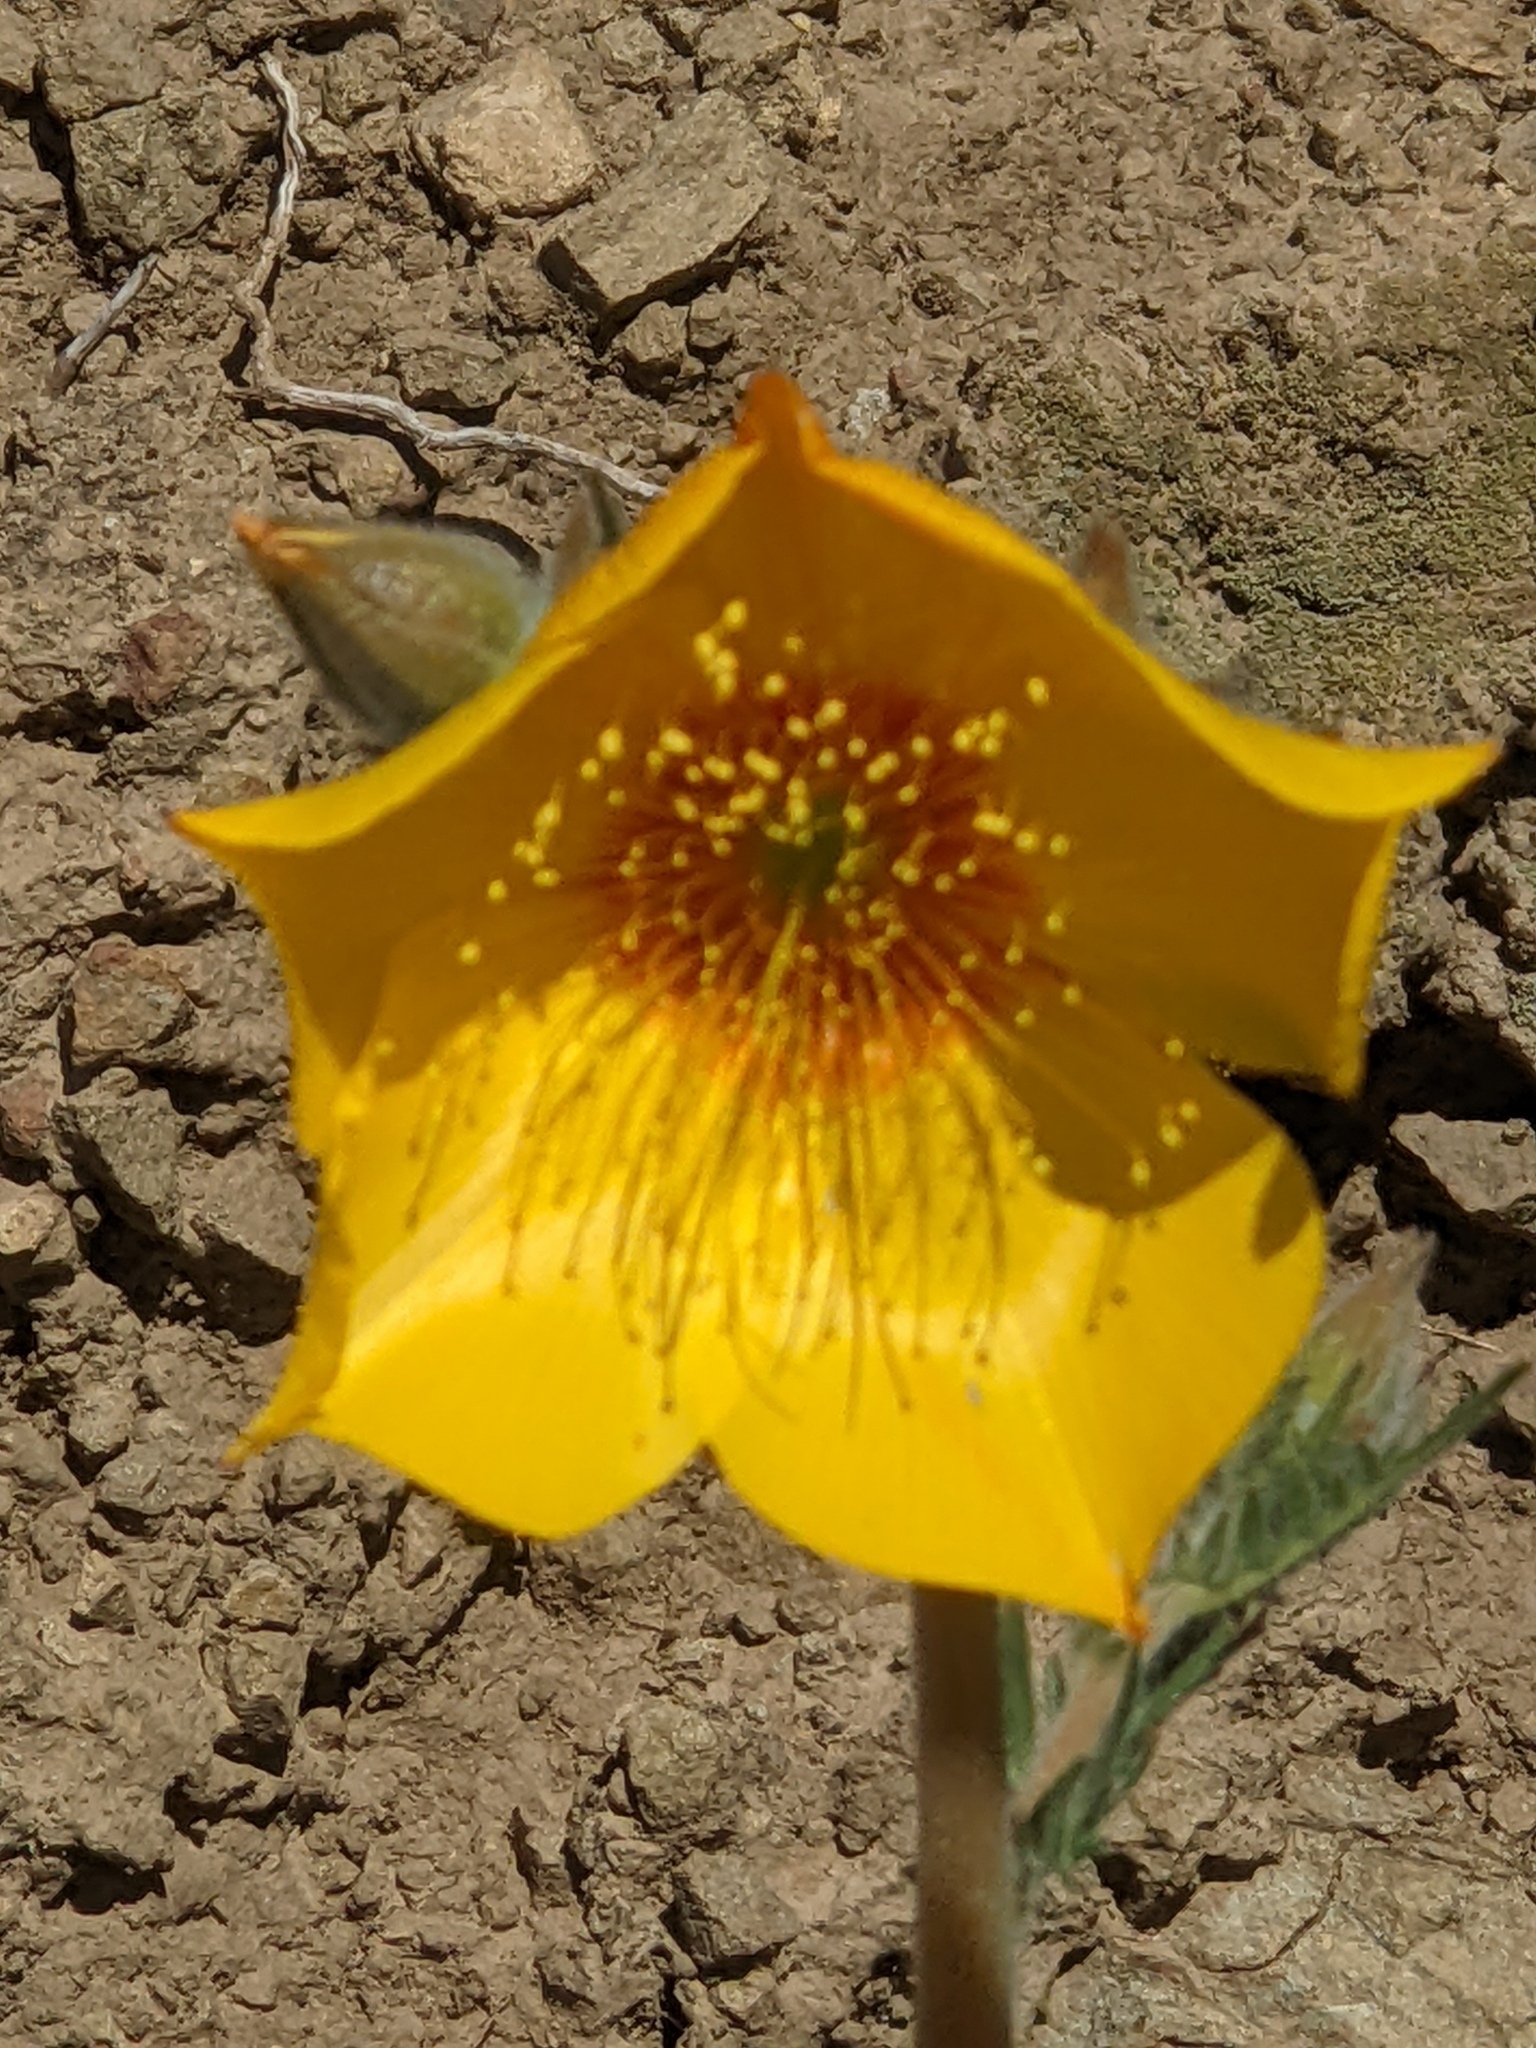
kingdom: Plantae
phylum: Tracheophyta
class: Magnoliopsida
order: Cornales
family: Loasaceae
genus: Mentzelia
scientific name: Mentzelia lindleyi
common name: Golden bartonia
